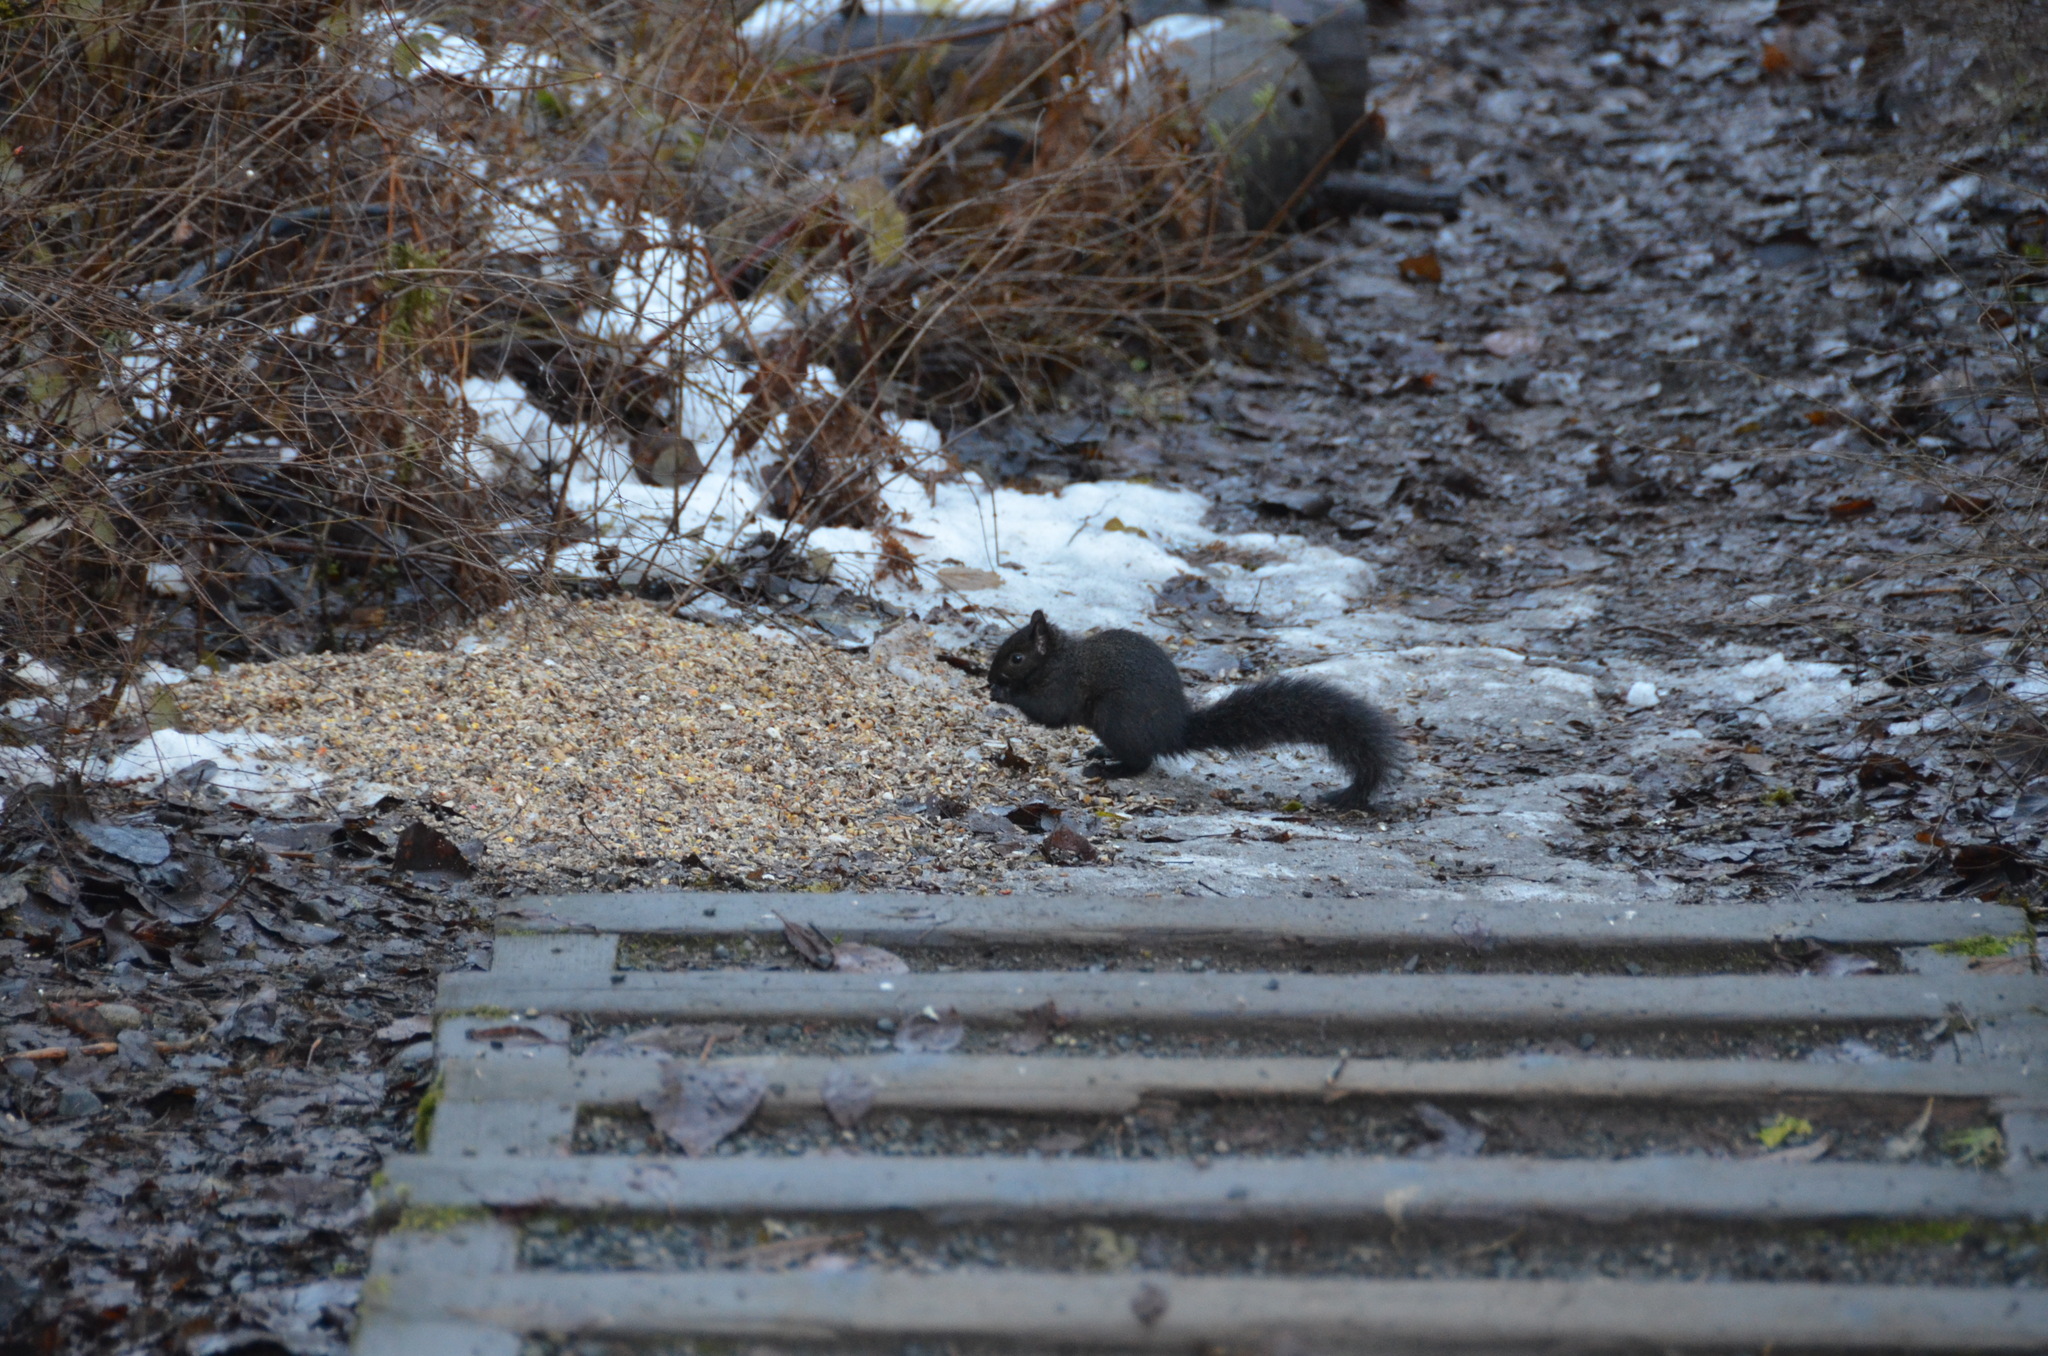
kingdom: Animalia
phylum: Chordata
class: Mammalia
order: Rodentia
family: Sciuridae
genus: Sciurus
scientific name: Sciurus carolinensis
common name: Eastern gray squirrel
